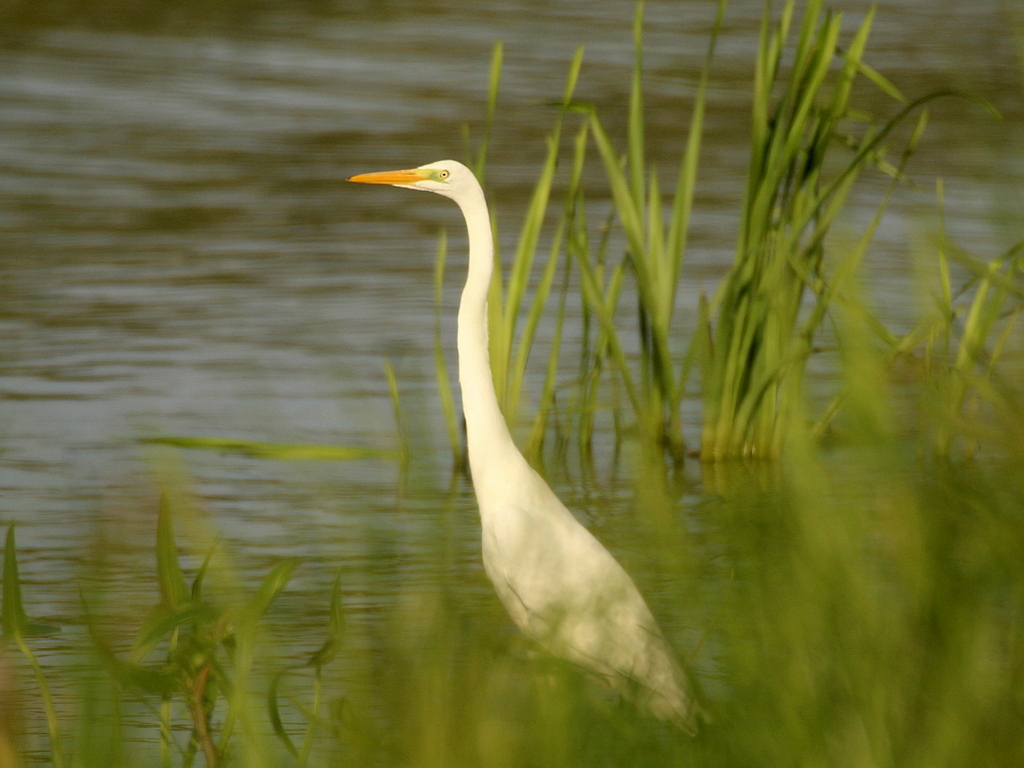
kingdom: Animalia
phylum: Chordata
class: Aves
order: Pelecaniformes
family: Ardeidae
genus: Ardea
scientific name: Ardea alba
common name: Great egret
